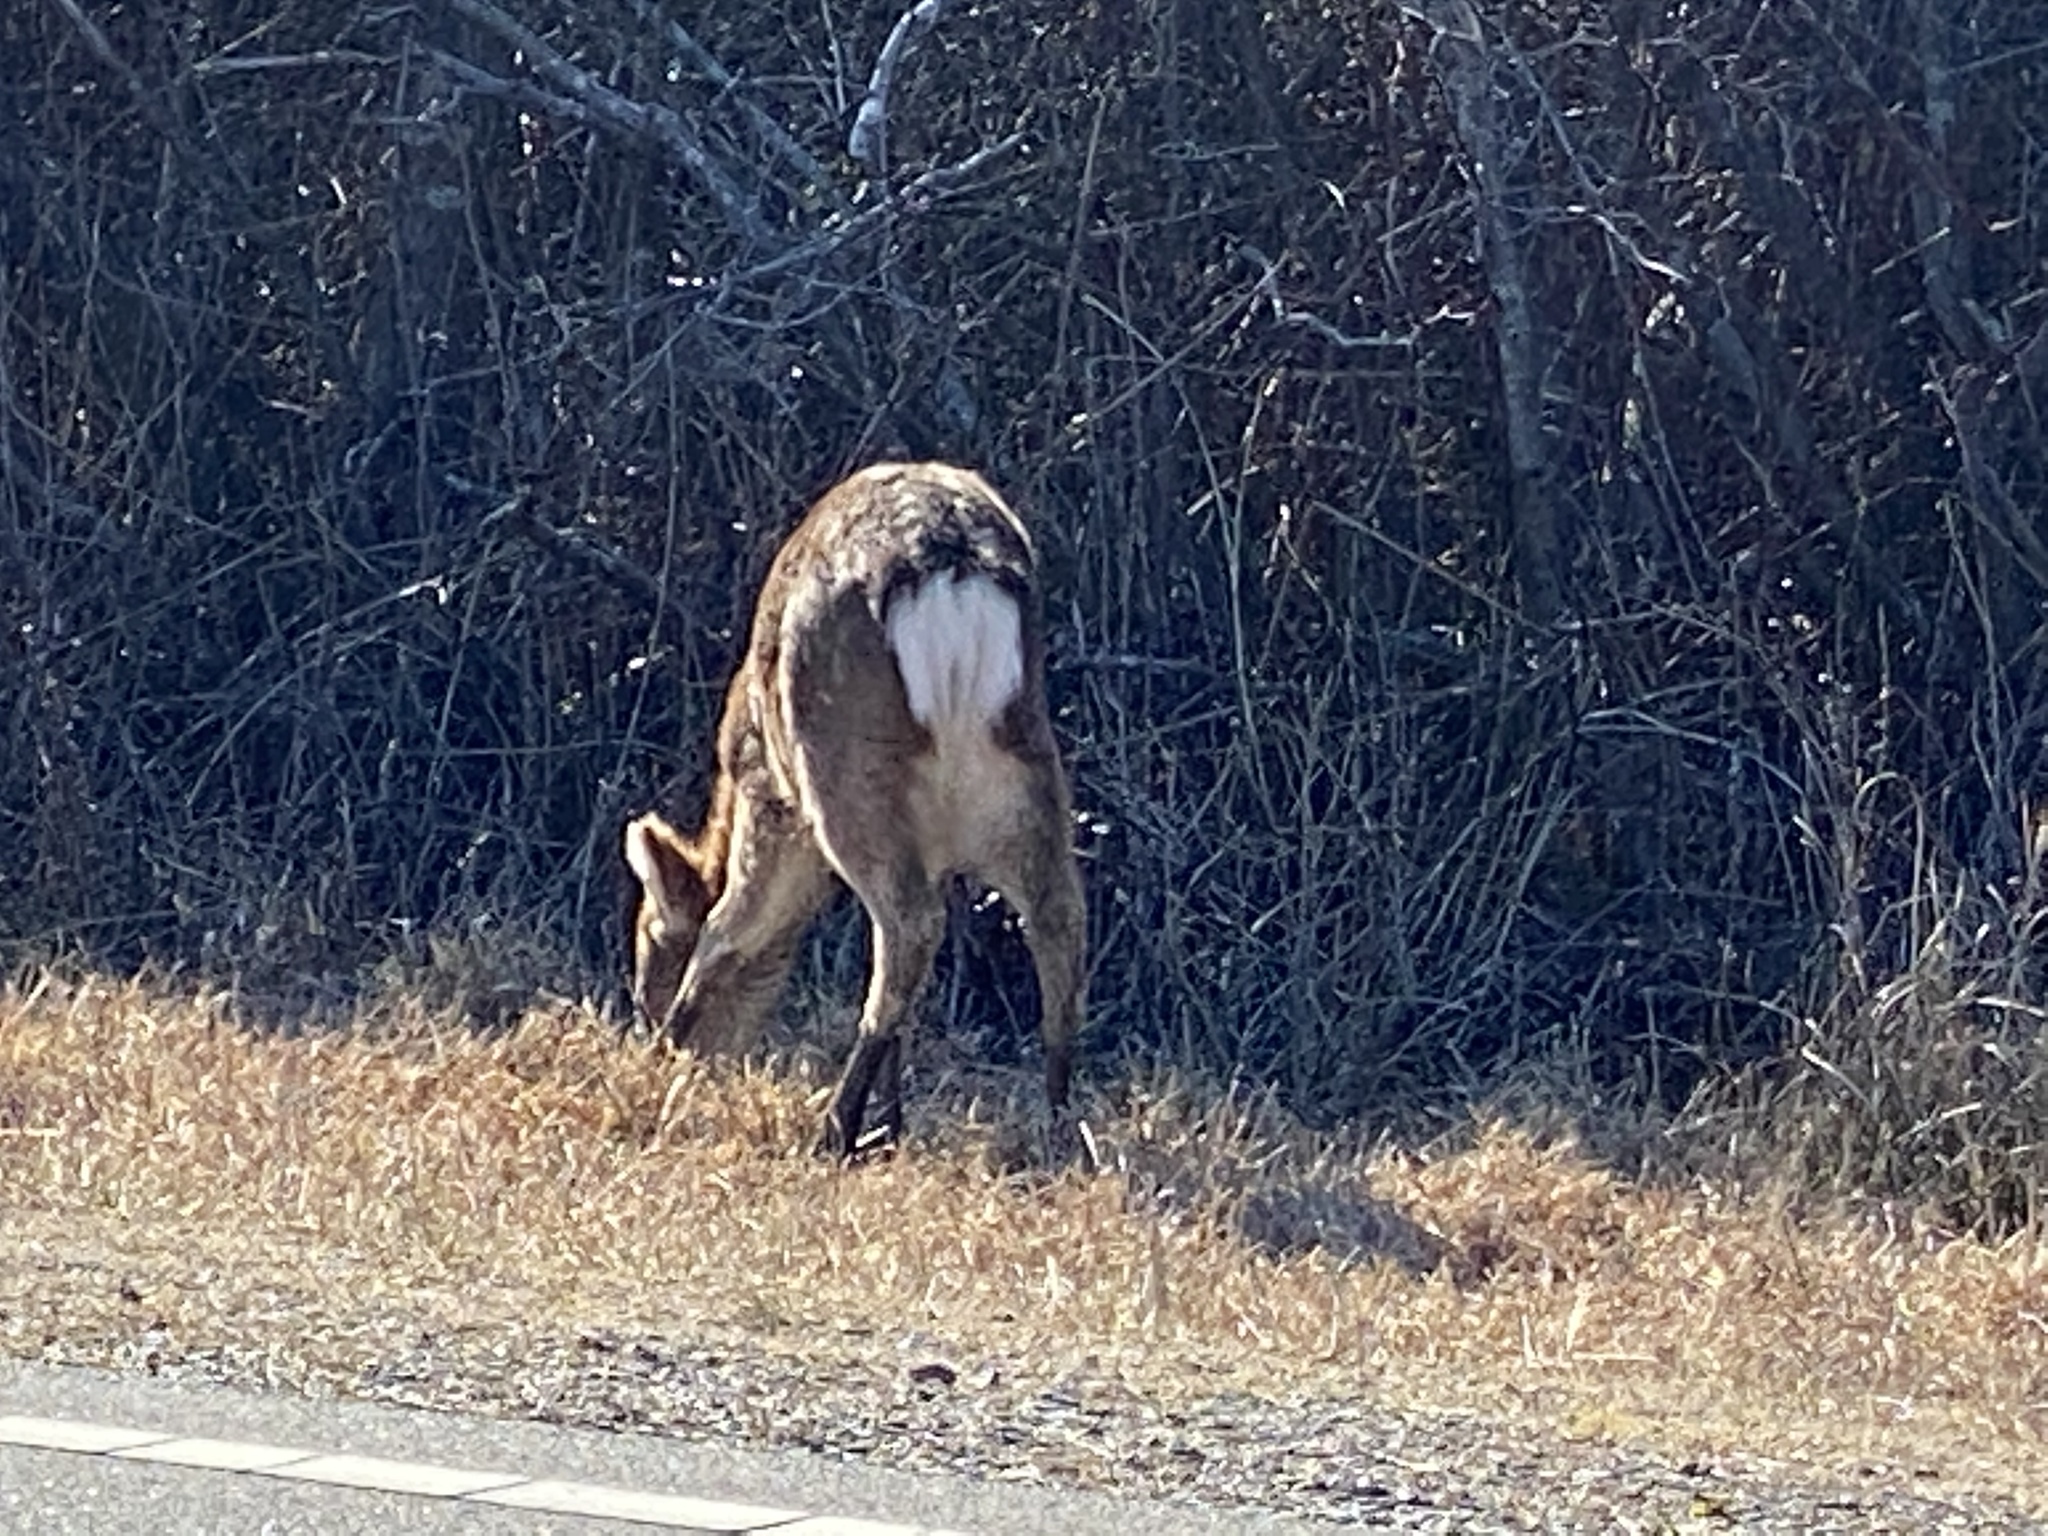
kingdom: Animalia
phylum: Chordata
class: Mammalia
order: Artiodactyla
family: Cervidae
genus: Cervus
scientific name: Cervus nippon
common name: Sika deer
